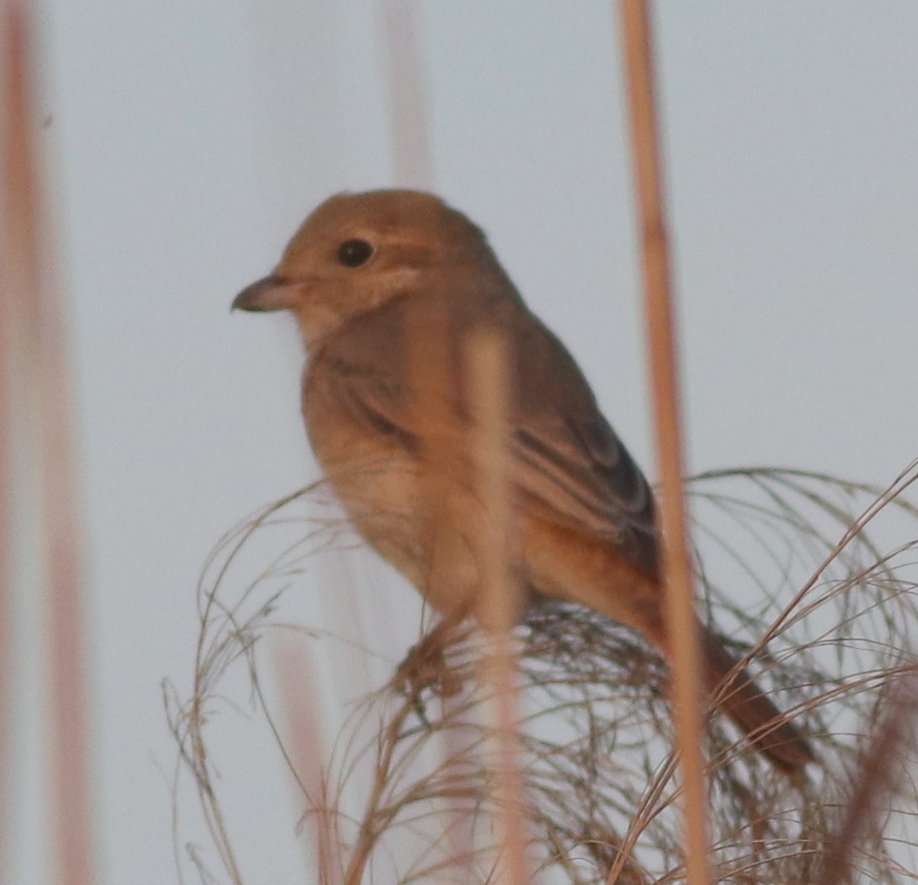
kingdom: Animalia
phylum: Chordata
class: Aves
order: Passeriformes
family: Laniidae
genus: Lanius
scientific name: Lanius isabellinus
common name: Isabelline shrike
